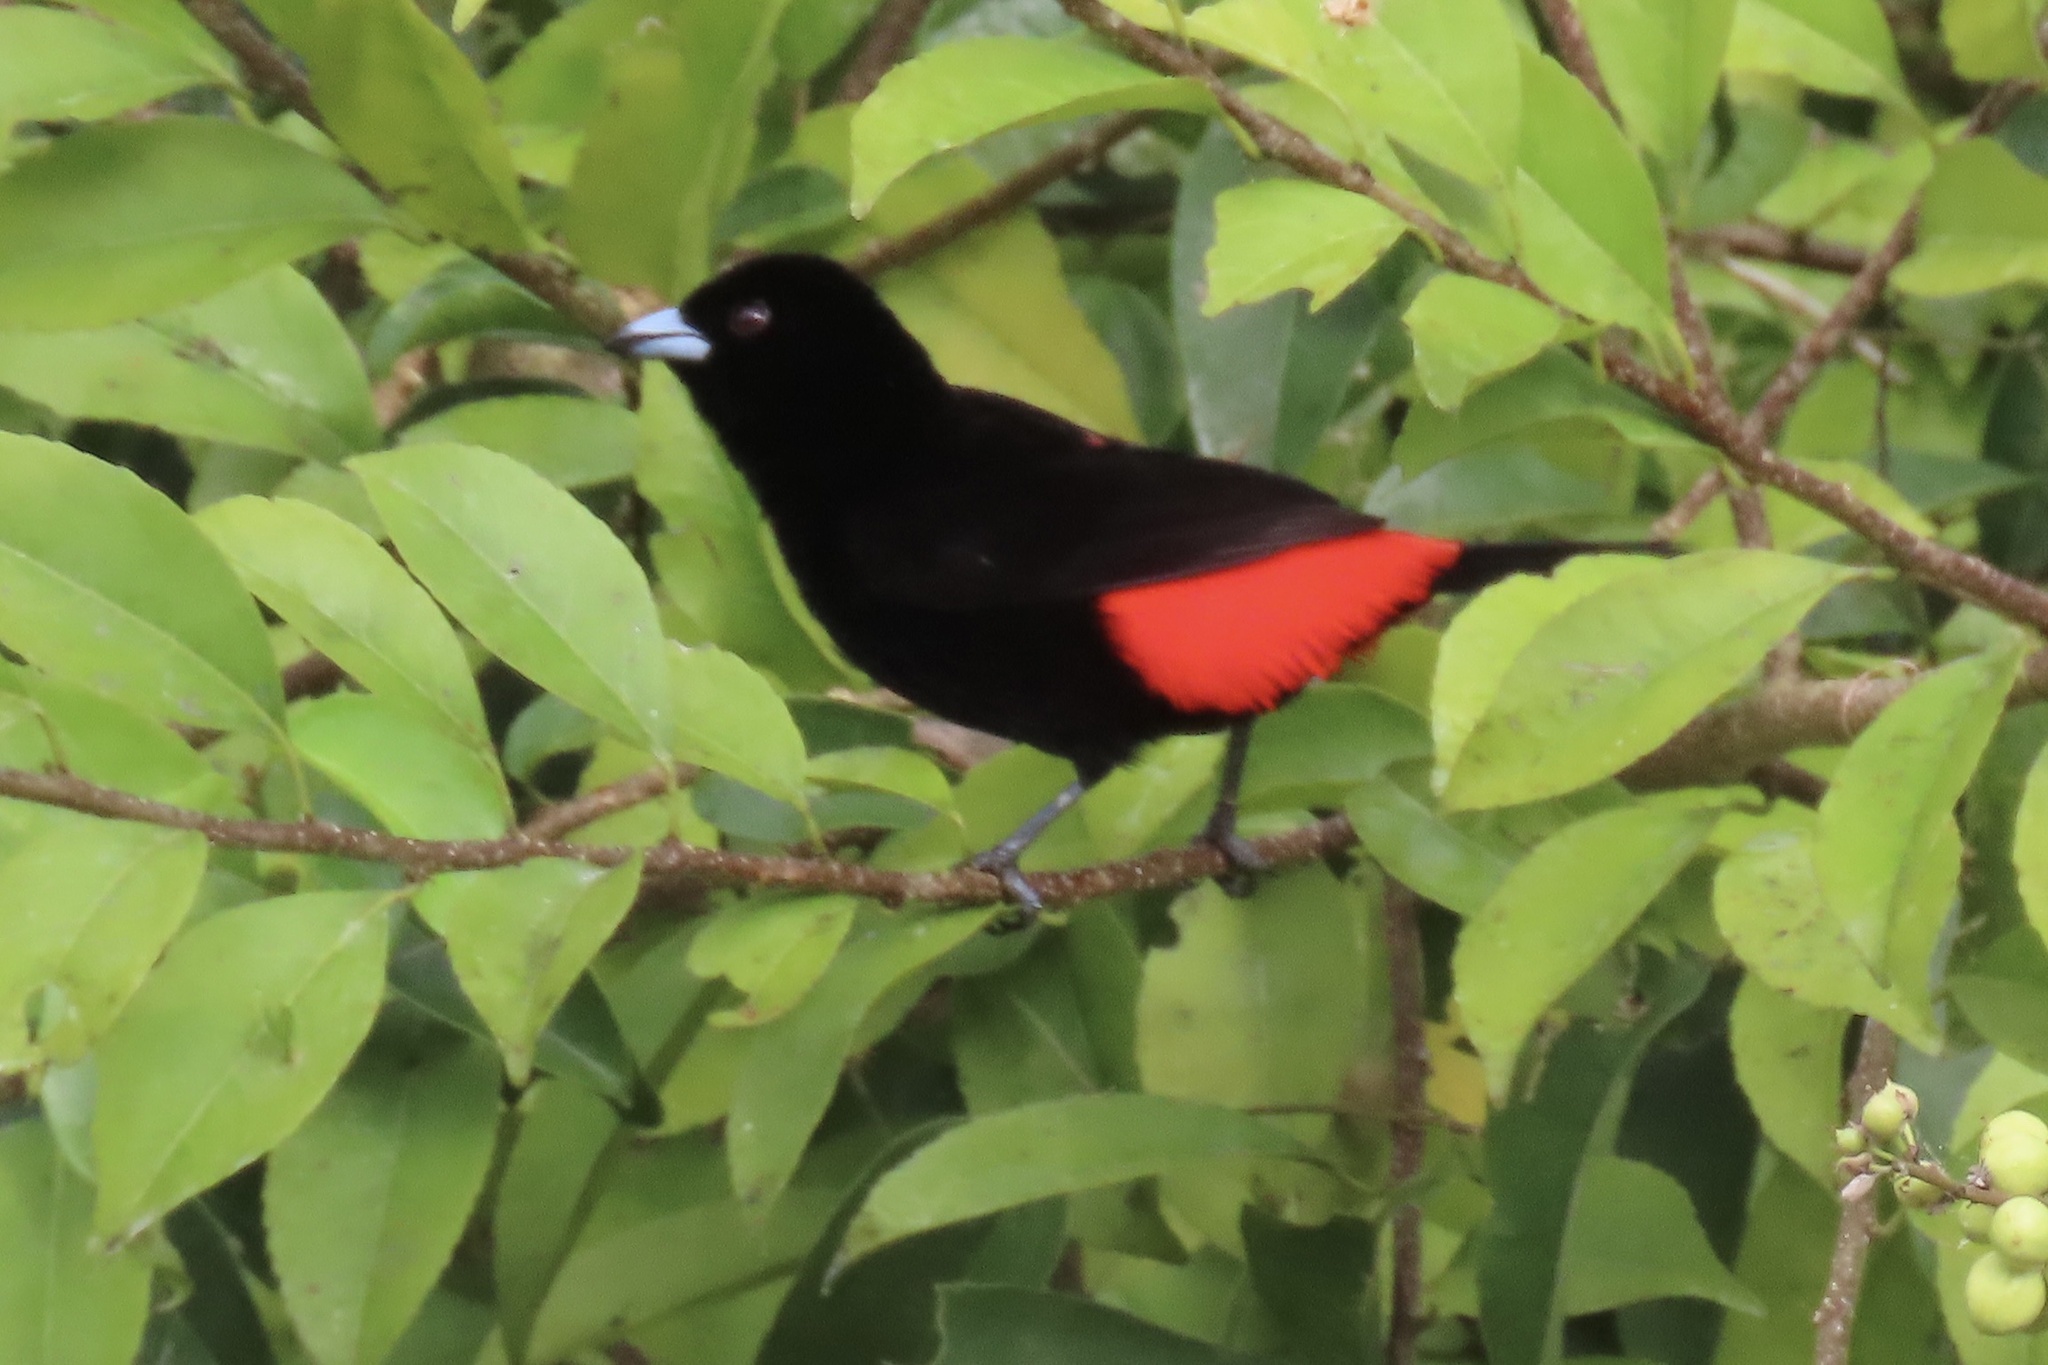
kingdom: Animalia
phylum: Chordata
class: Aves
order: Passeriformes
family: Thraupidae
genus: Ramphocelus
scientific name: Ramphocelus passerinii
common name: Passerini's tanager
